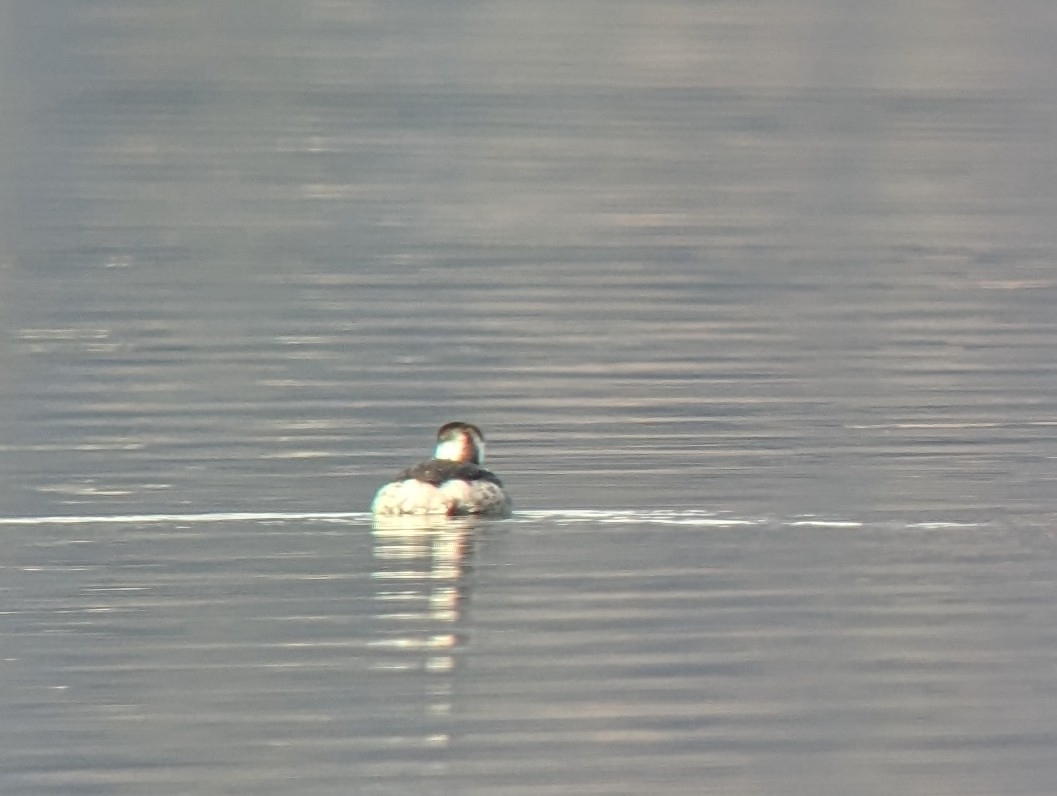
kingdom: Animalia
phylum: Chordata
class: Aves
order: Podicipediformes
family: Podicipedidae
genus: Podiceps
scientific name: Podiceps auritus
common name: Horned grebe
